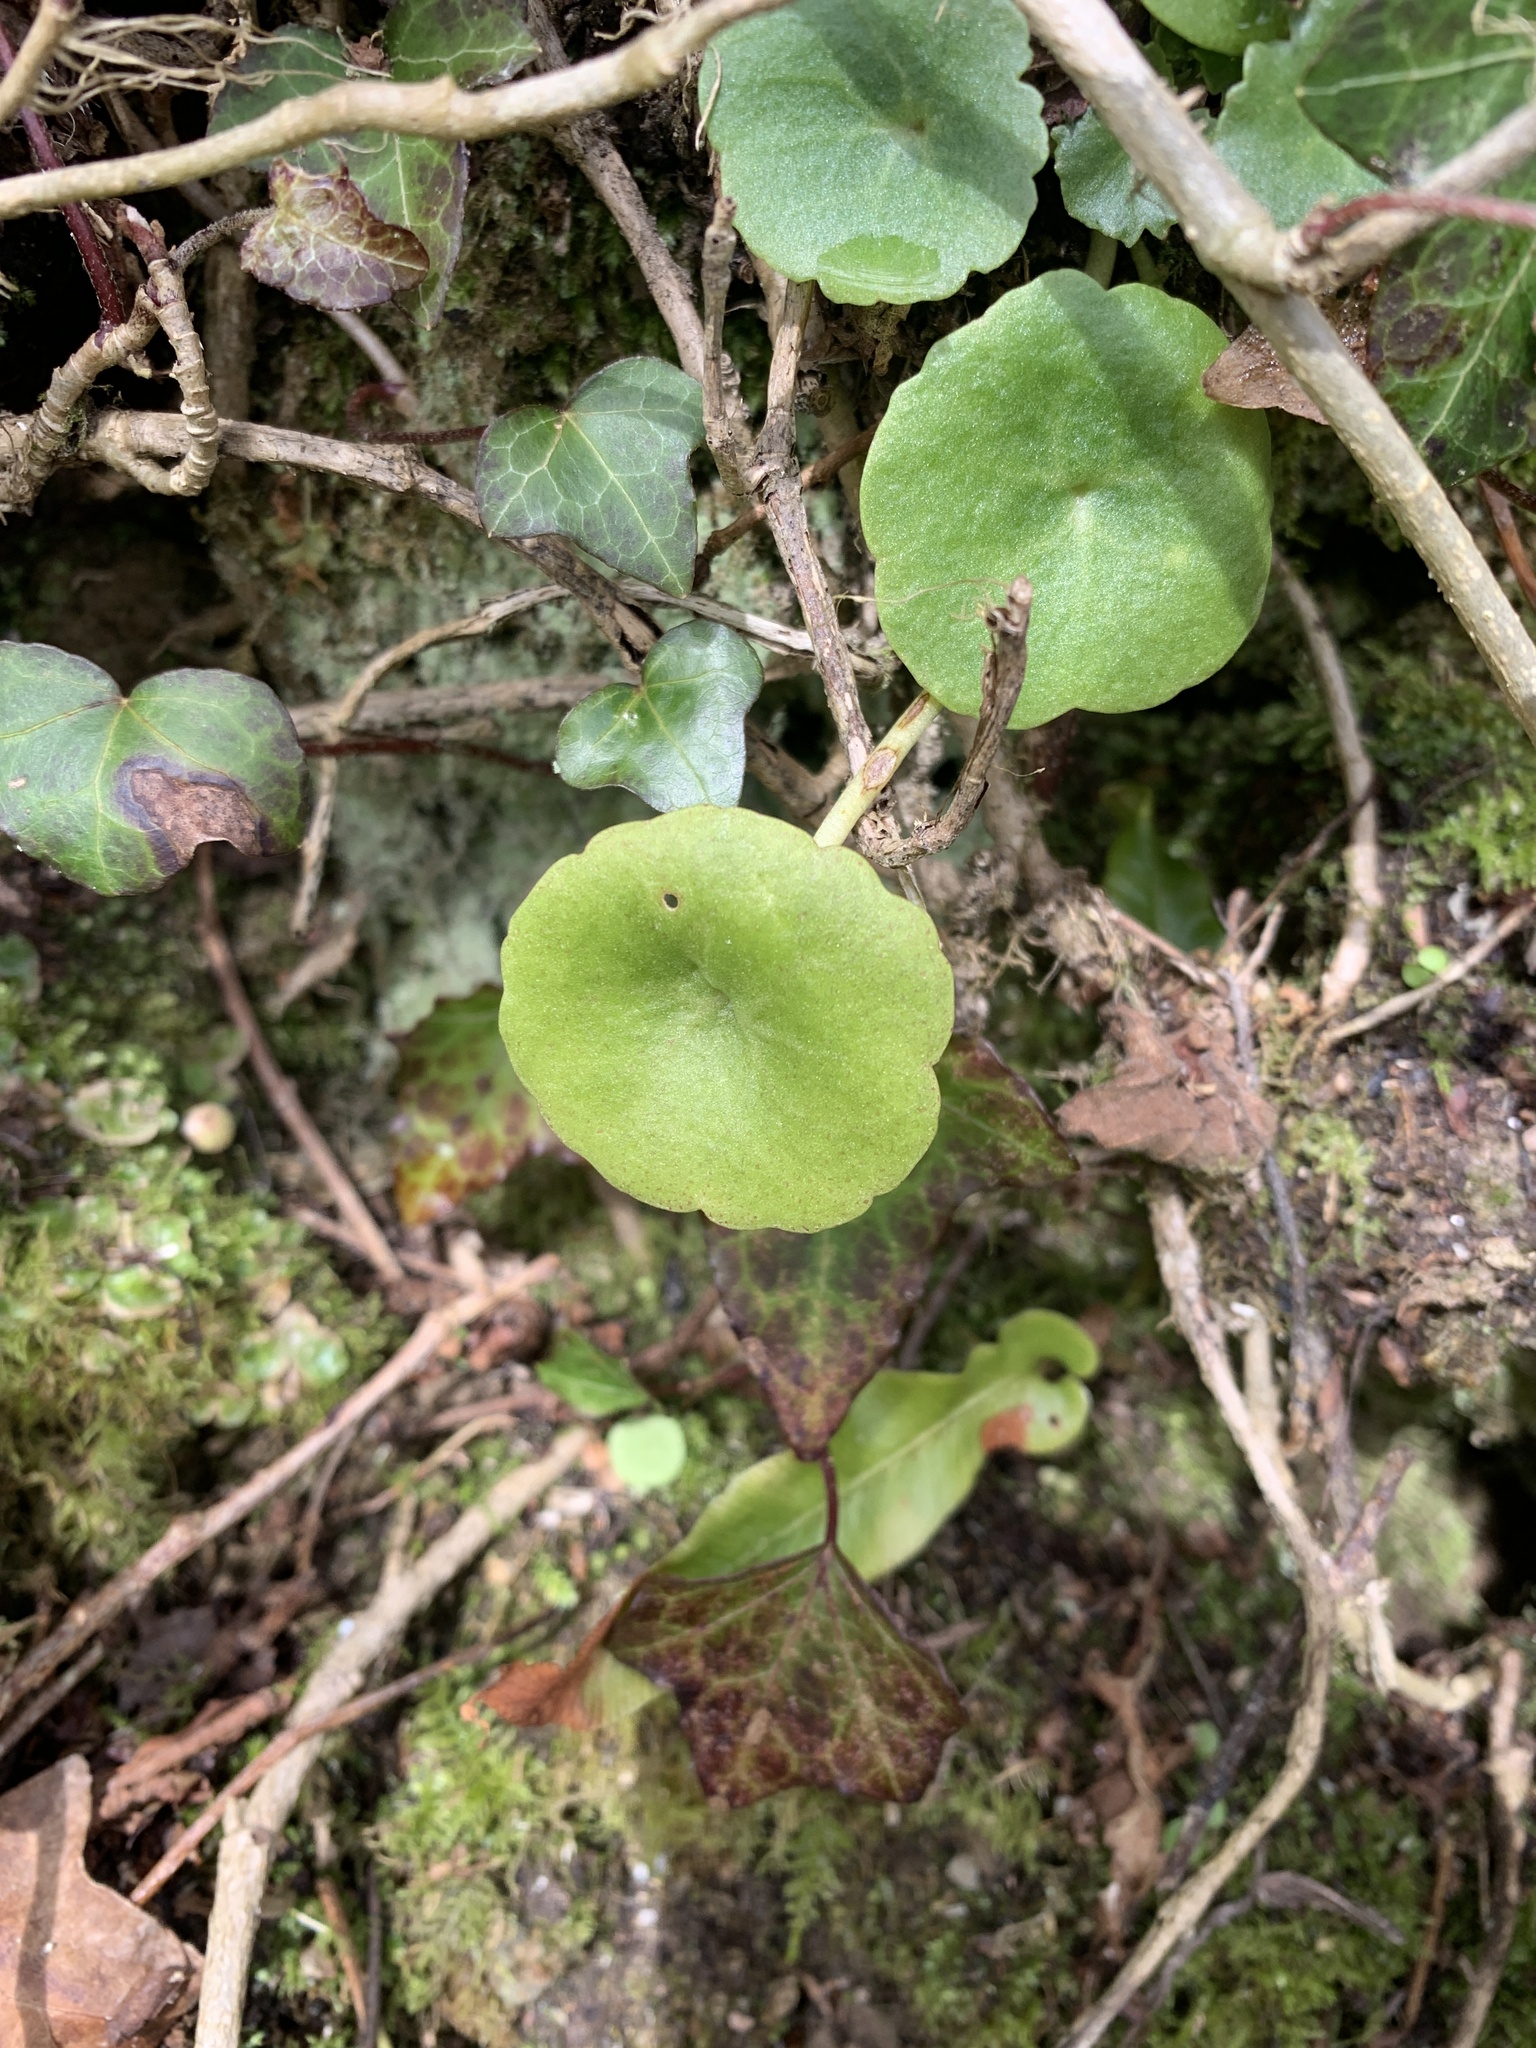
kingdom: Plantae
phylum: Tracheophyta
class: Magnoliopsida
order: Saxifragales
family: Crassulaceae
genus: Umbilicus
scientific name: Umbilicus rupestris
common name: Navelwort
